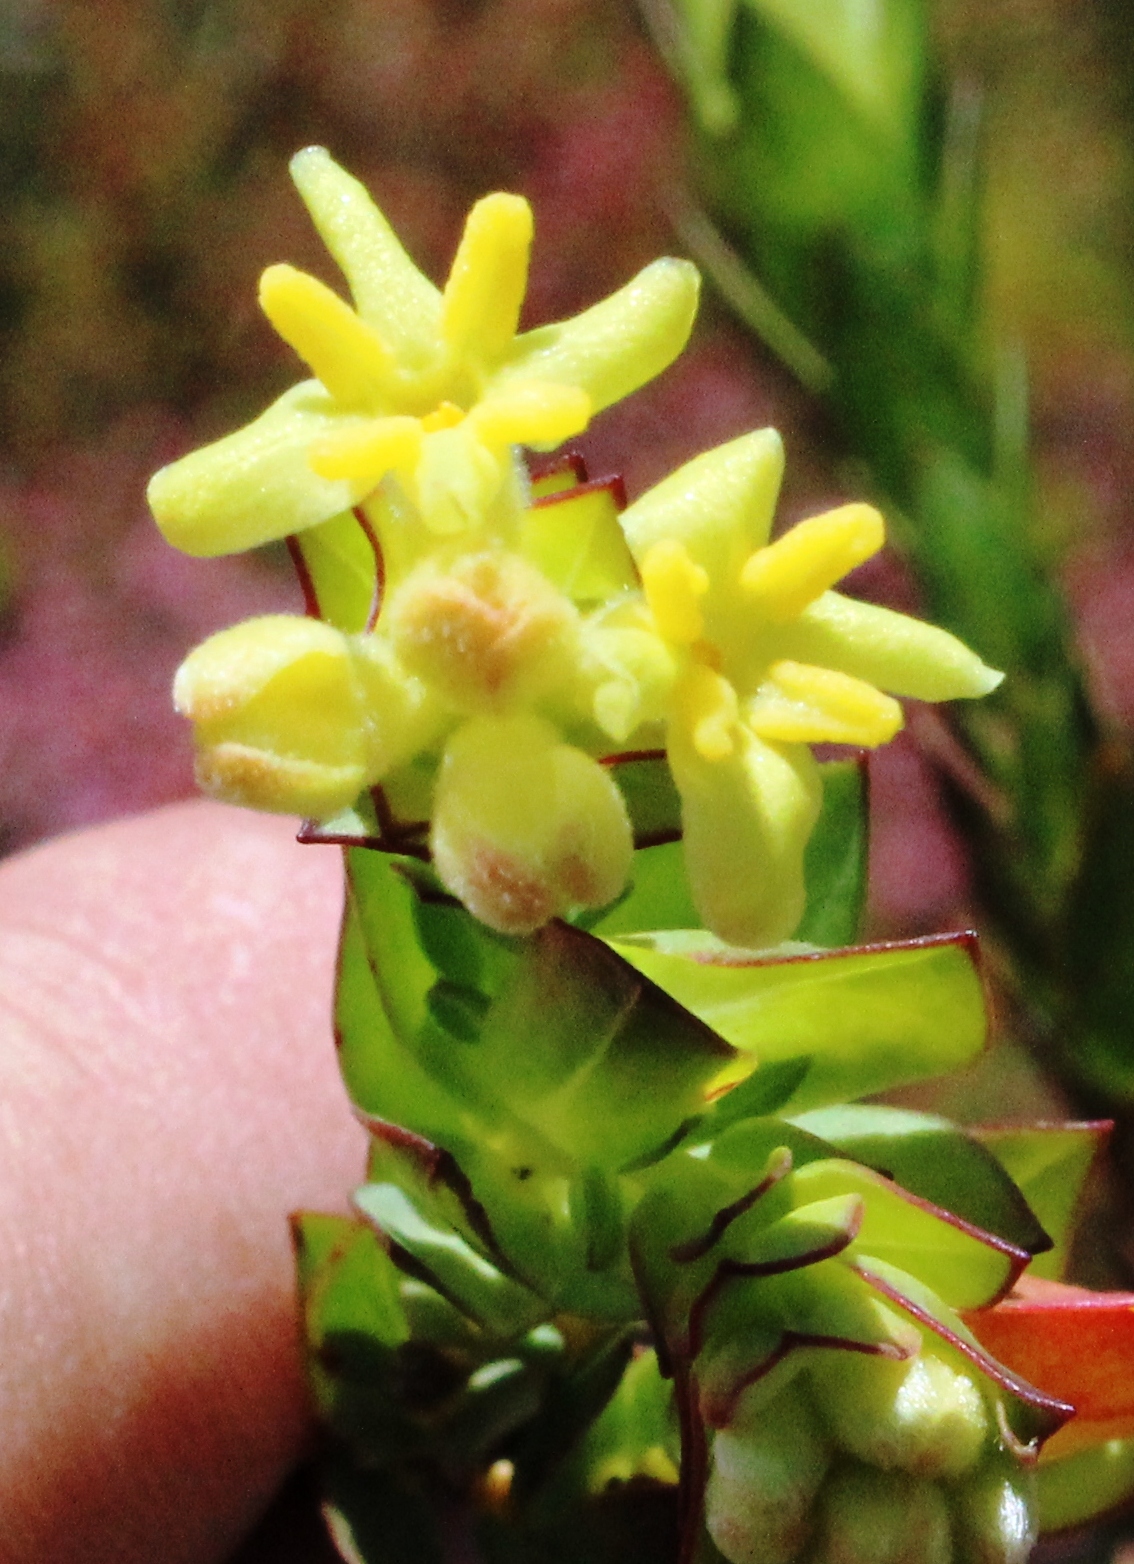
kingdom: Plantae
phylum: Tracheophyta
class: Magnoliopsida
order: Malvales
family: Thymelaeaceae
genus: Gnidia
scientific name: Gnidia oppositifolia
